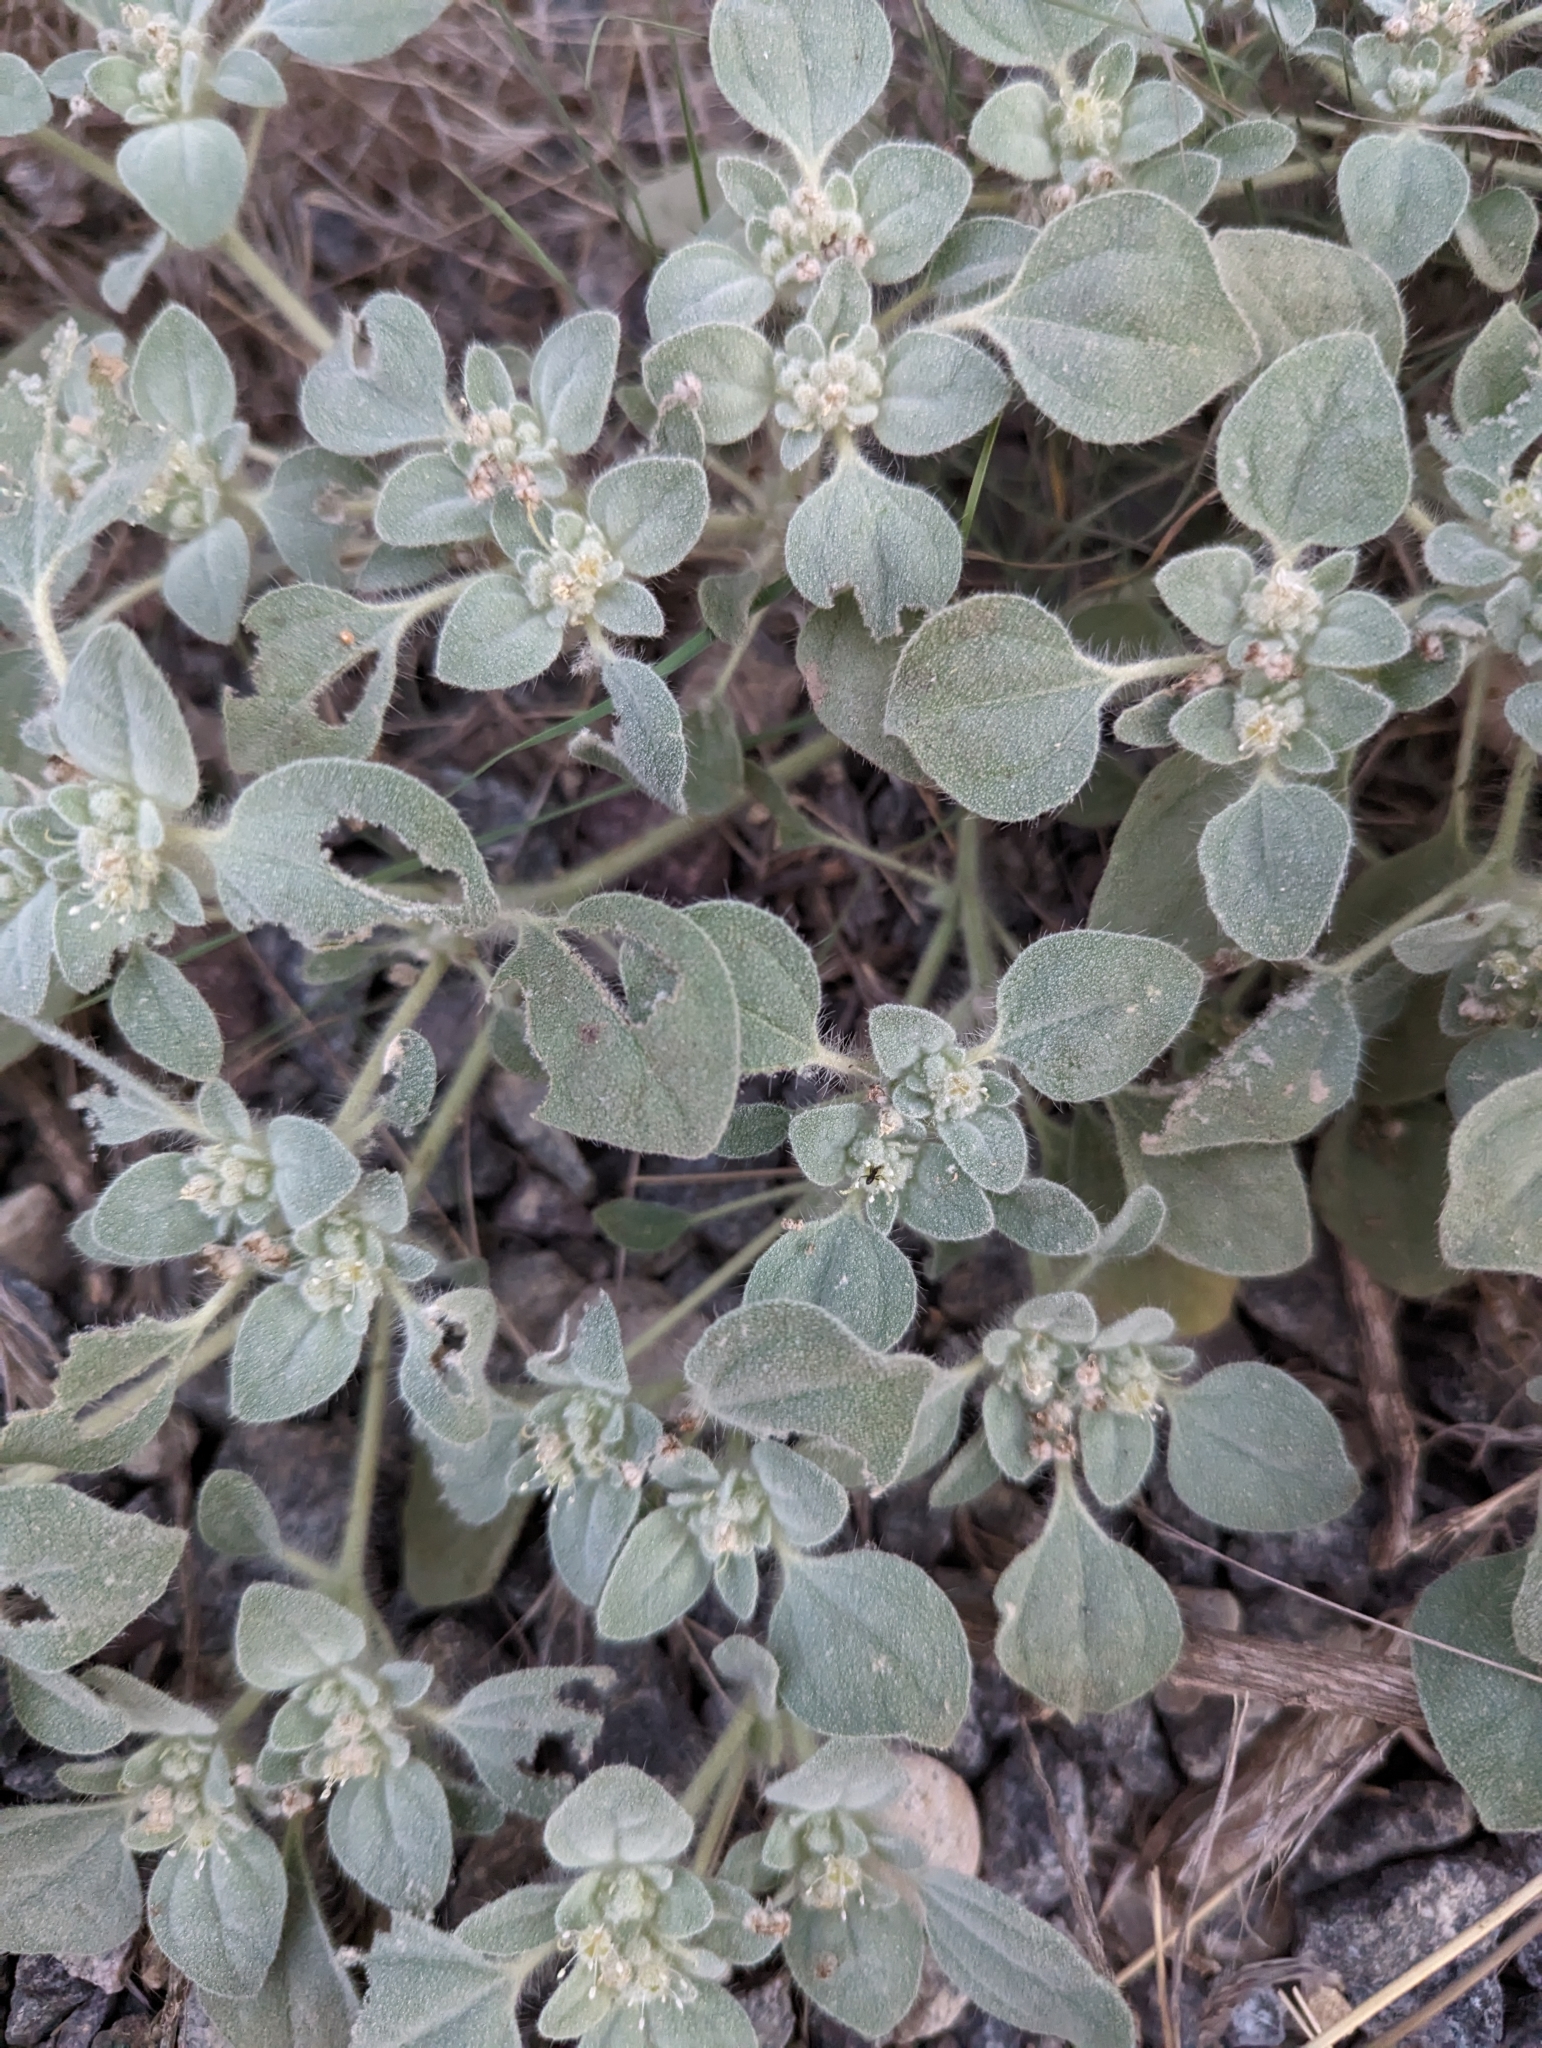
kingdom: Plantae
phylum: Tracheophyta
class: Magnoliopsida
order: Malpighiales
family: Euphorbiaceae
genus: Croton
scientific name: Croton setiger
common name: Dove weed
